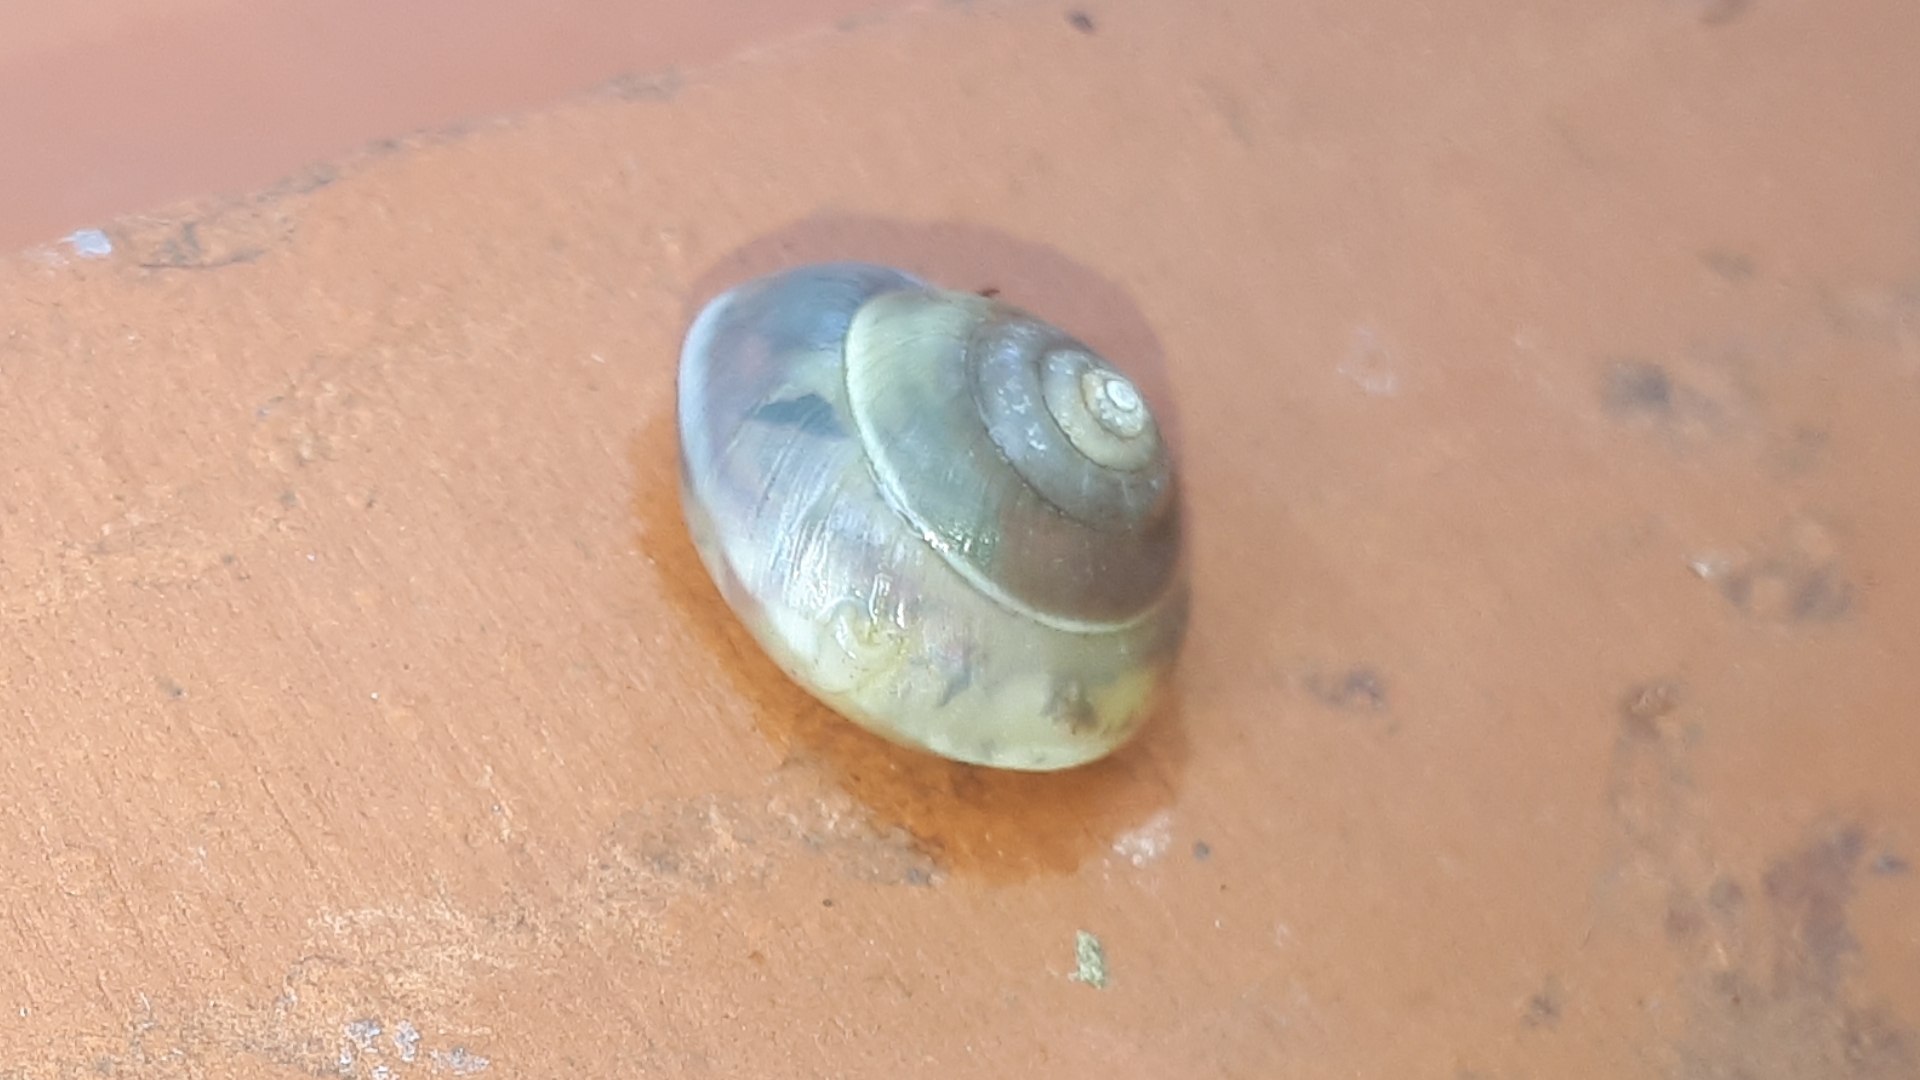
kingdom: Animalia
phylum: Mollusca
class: Gastropoda
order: Stylommatophora
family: Hygromiidae
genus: Hygromia
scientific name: Hygromia cinctella
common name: Girdled snail
